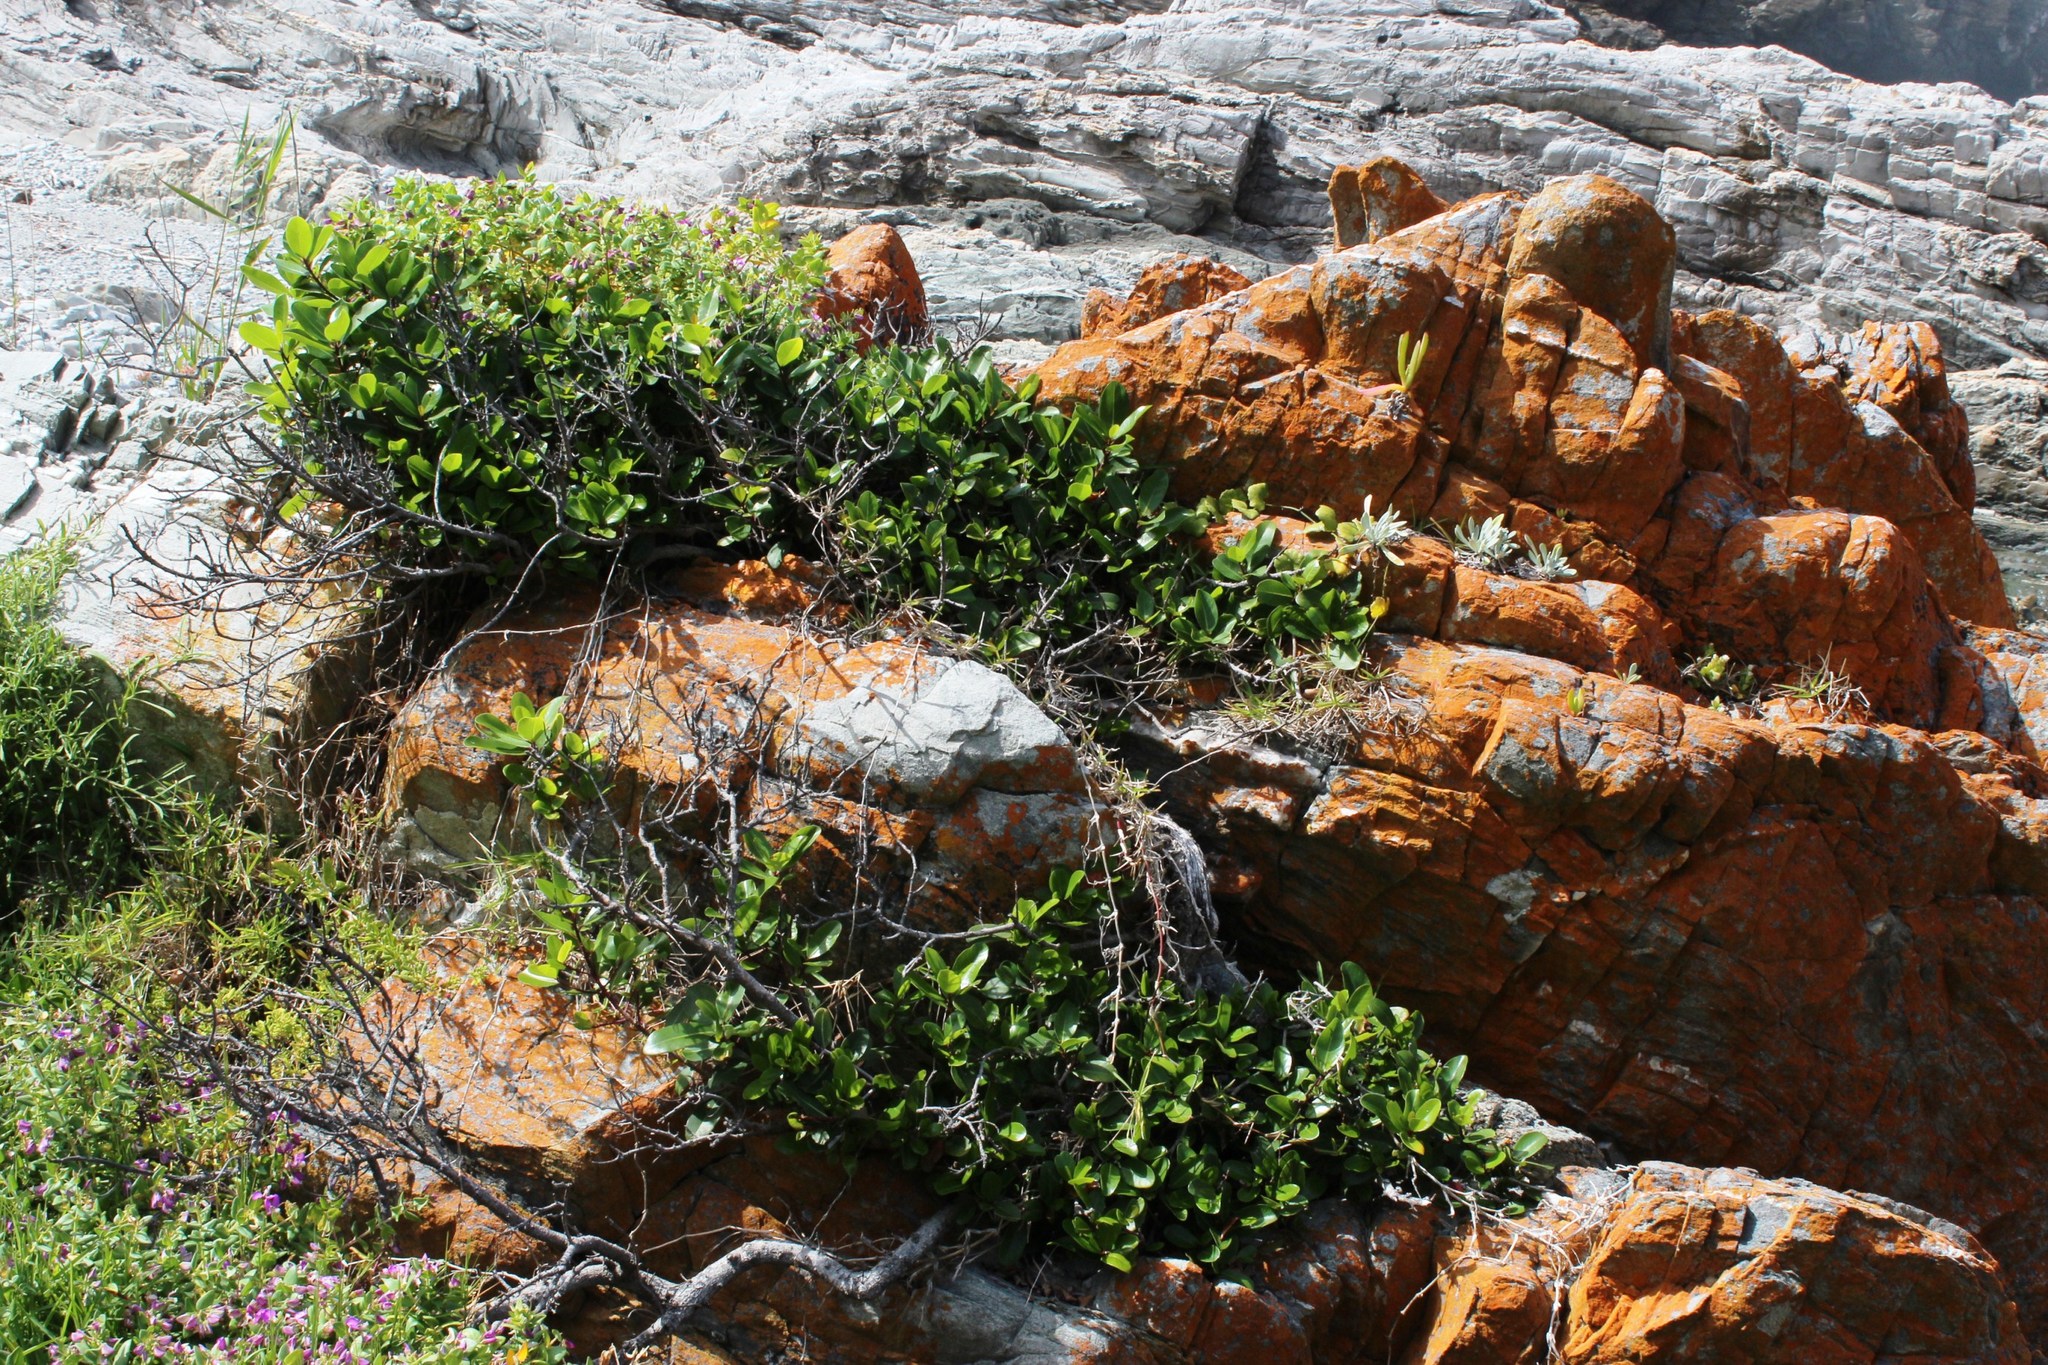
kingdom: Plantae
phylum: Tracheophyta
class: Magnoliopsida
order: Ericales
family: Sapotaceae
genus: Sideroxylon
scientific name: Sideroxylon inerme
